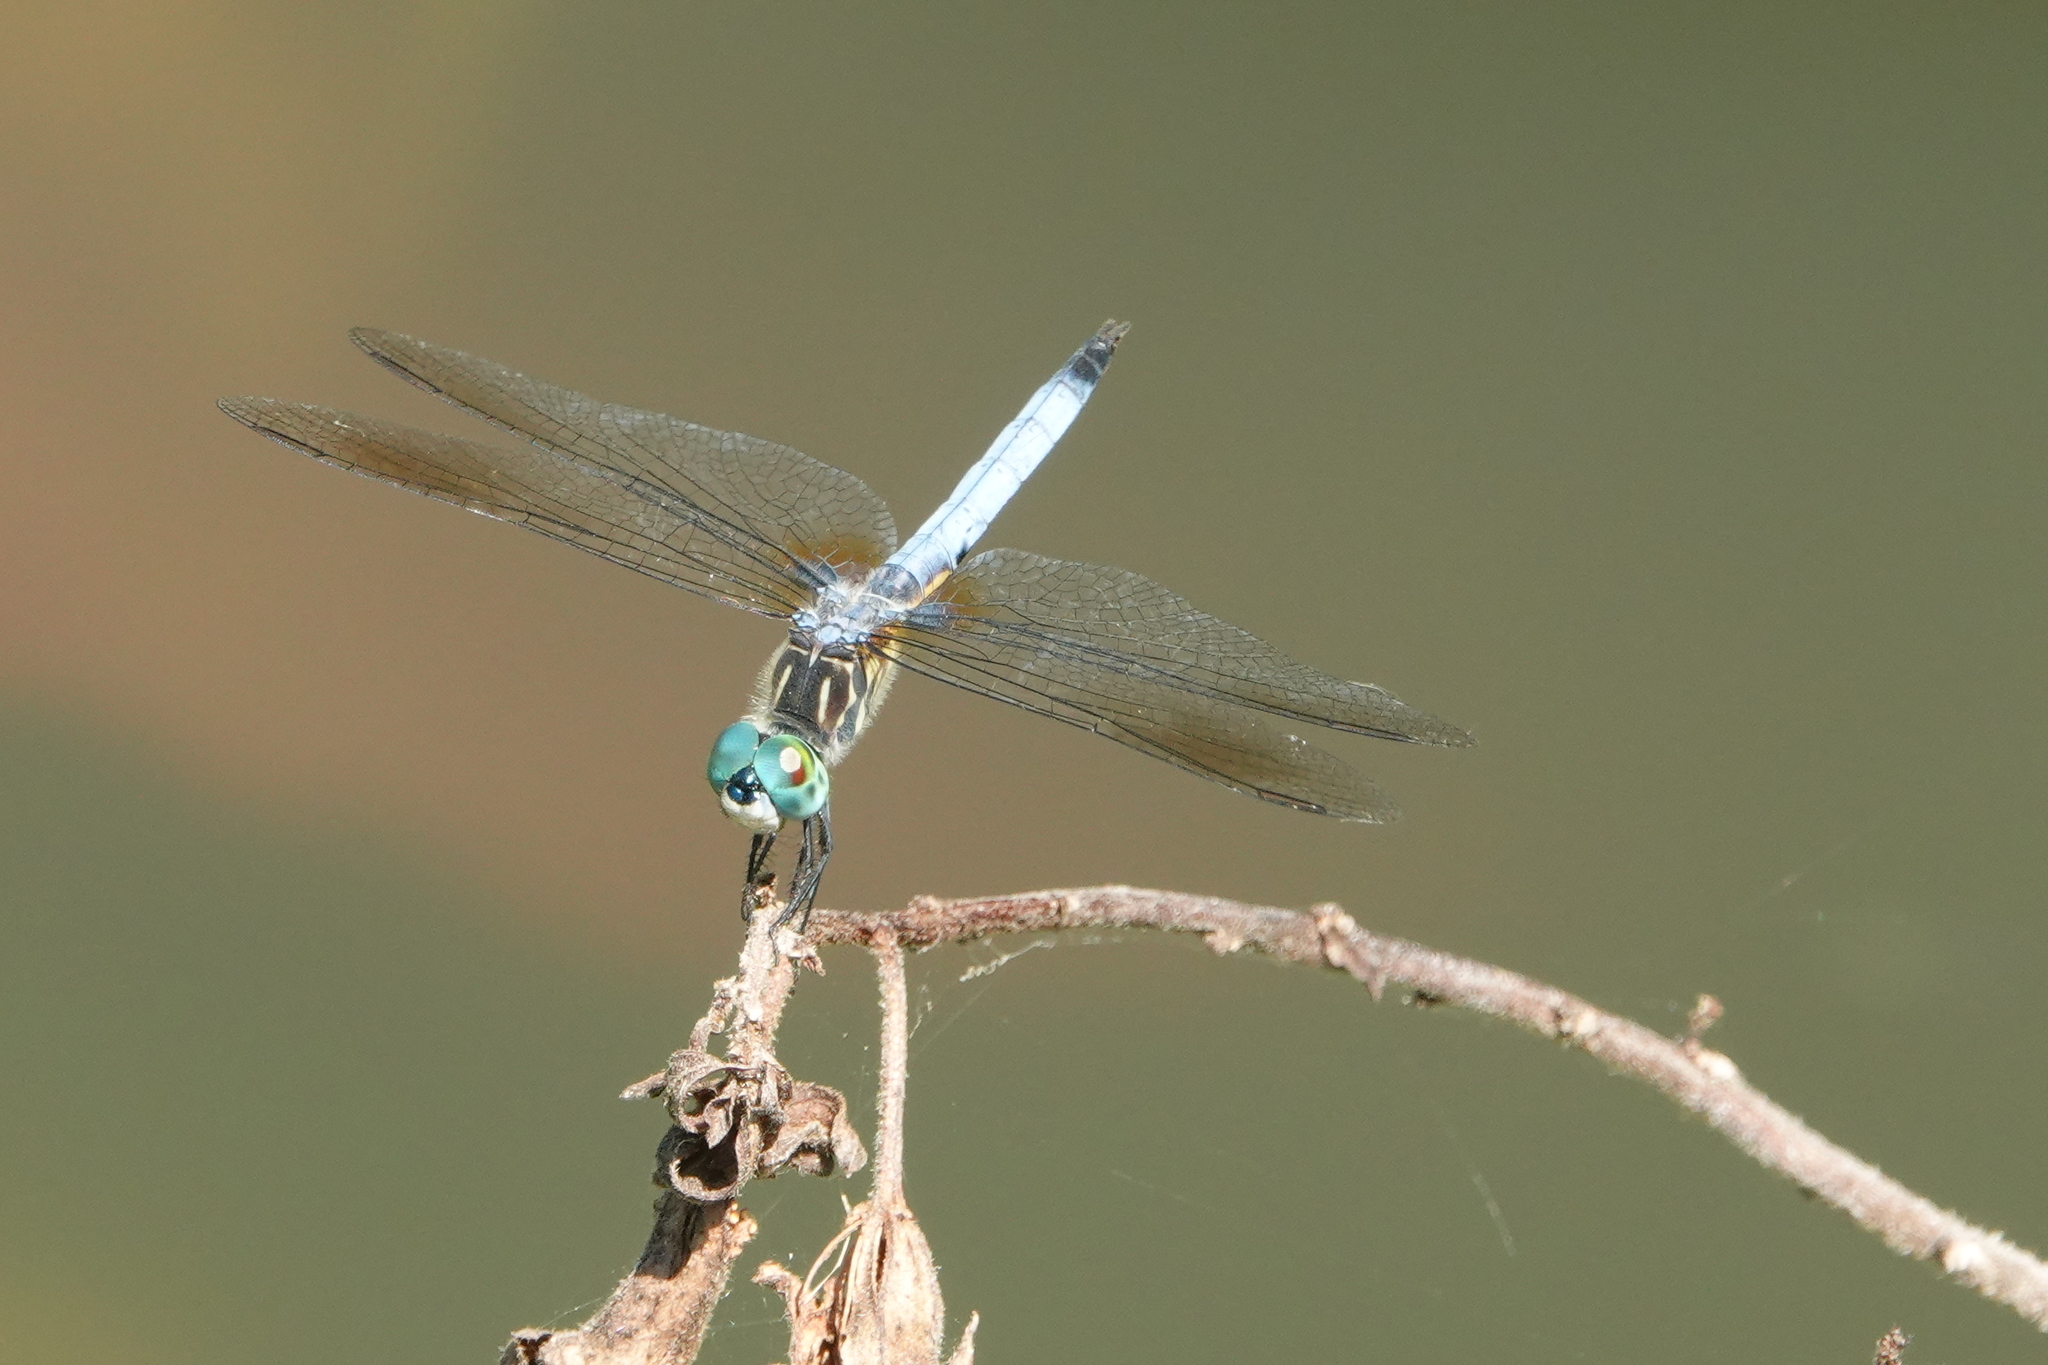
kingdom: Animalia
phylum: Arthropoda
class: Insecta
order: Odonata
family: Libellulidae
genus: Pachydiplax
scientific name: Pachydiplax longipennis
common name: Blue dasher
